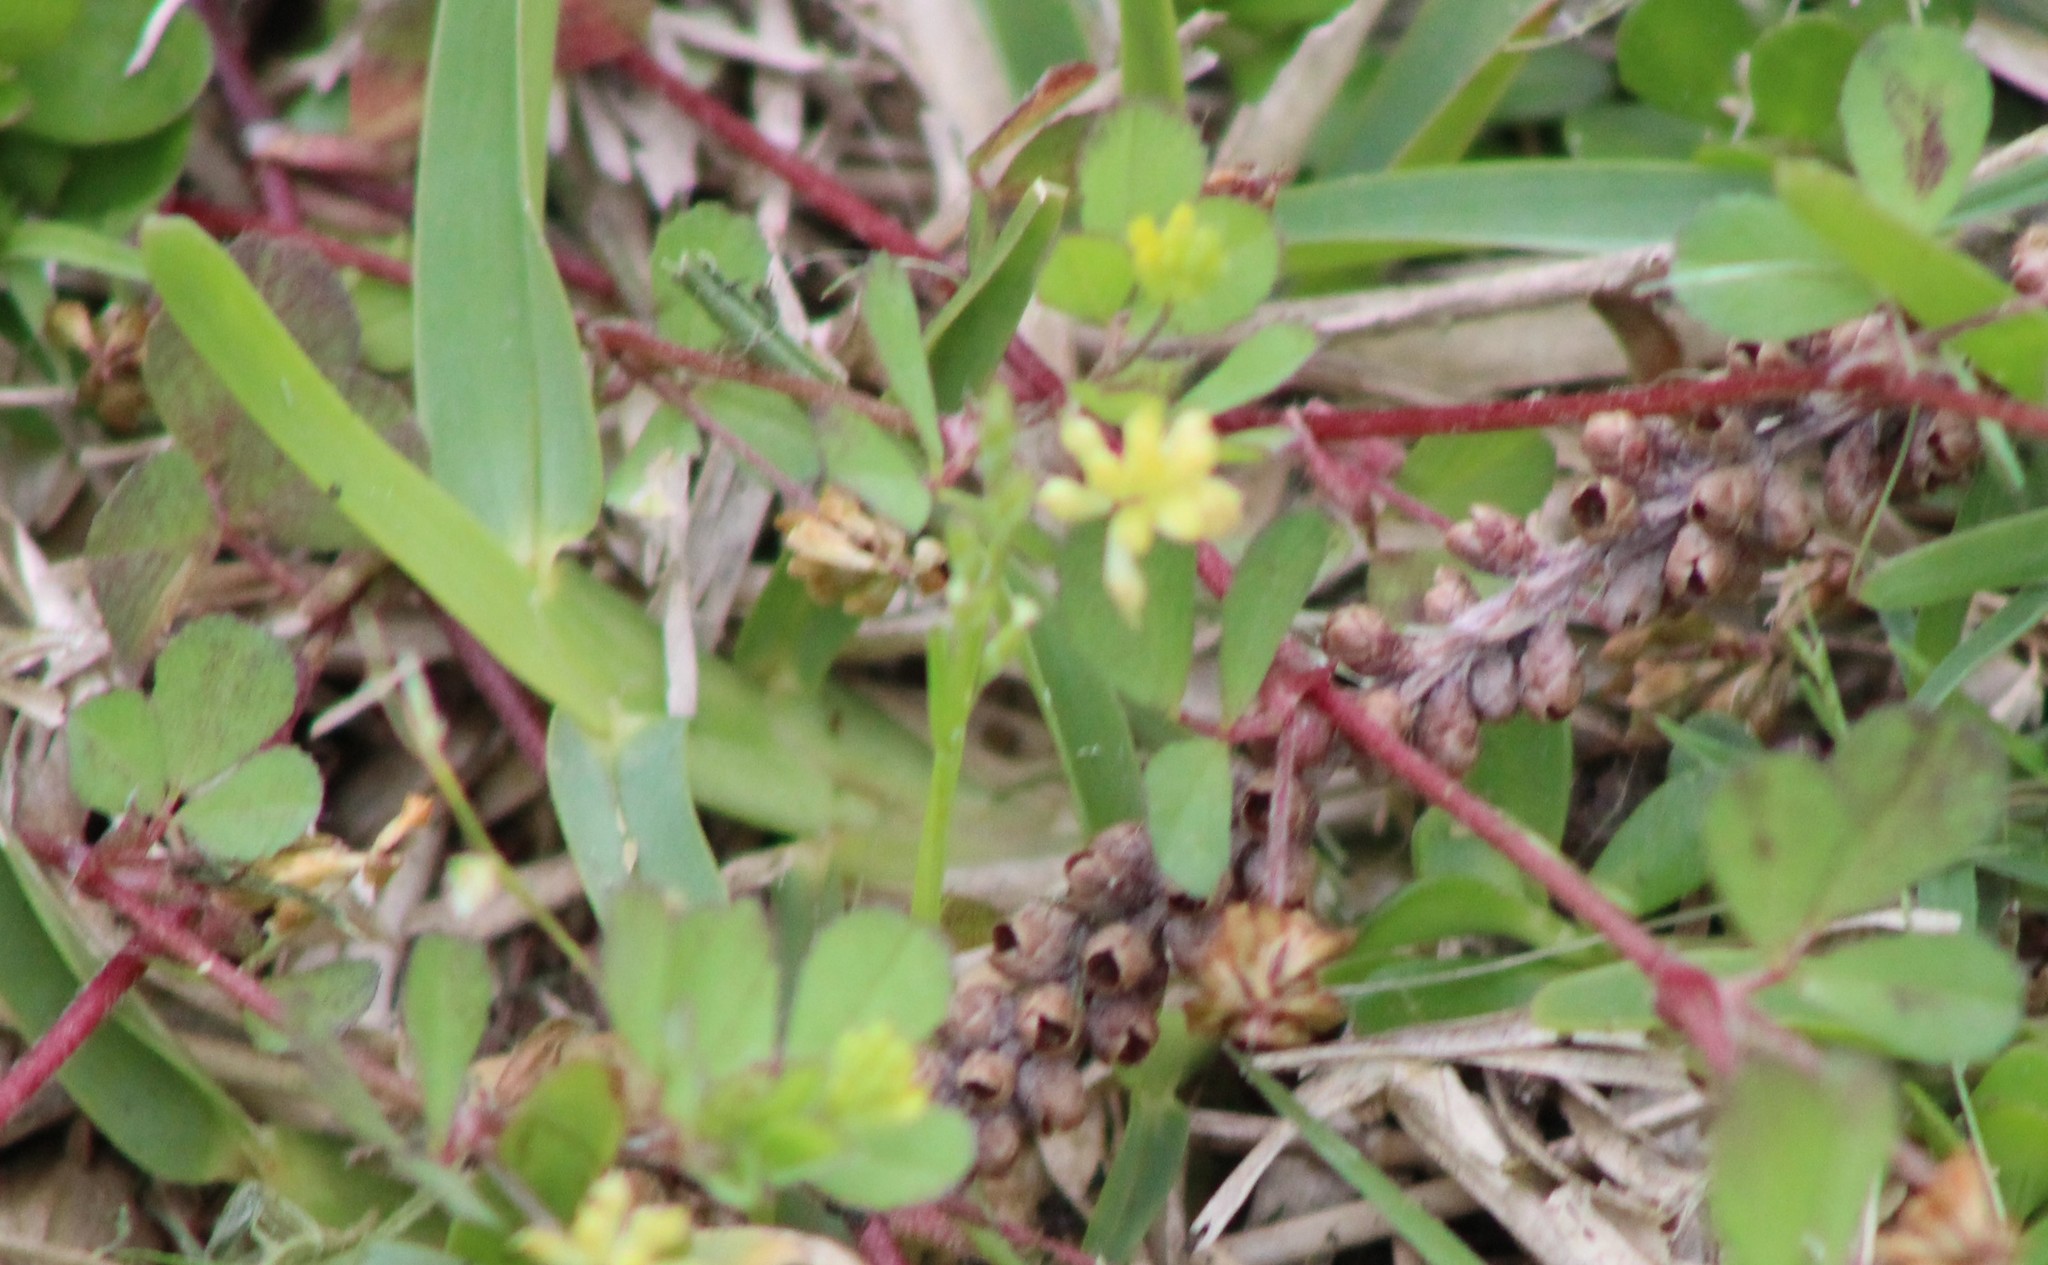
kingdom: Plantae
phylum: Tracheophyta
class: Magnoliopsida
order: Fabales
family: Fabaceae
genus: Trifolium
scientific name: Trifolium dubium
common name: Suckling clover
